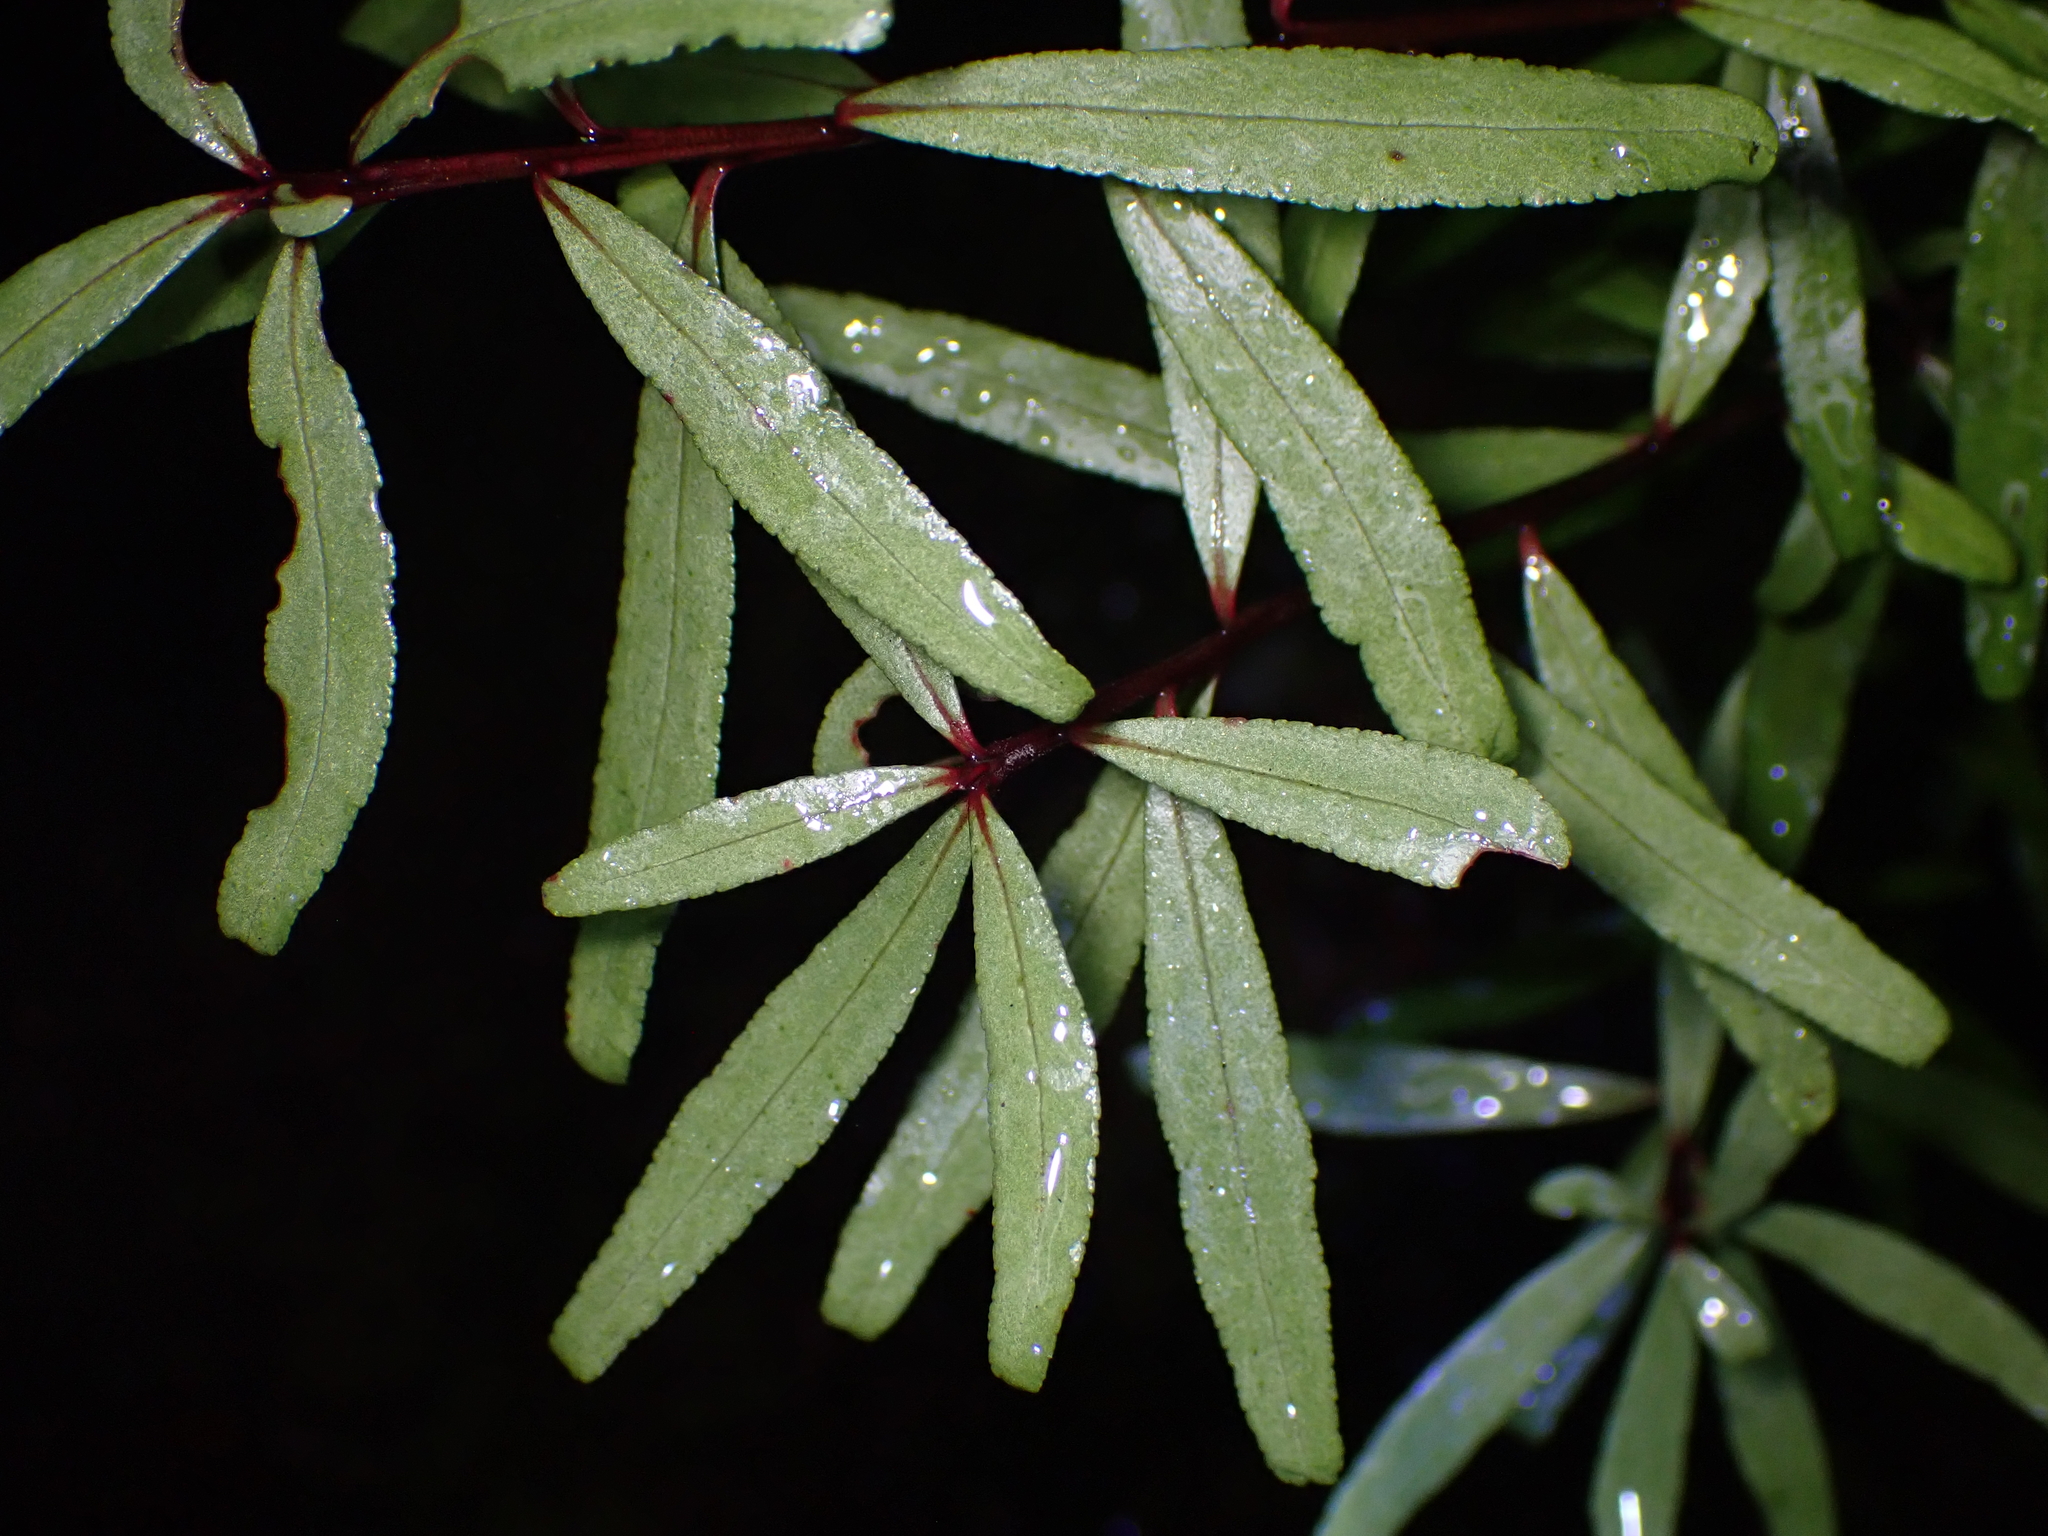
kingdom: Plantae
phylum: Tracheophyta
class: Magnoliopsida
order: Sapindales
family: Rutaceae
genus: Leionema
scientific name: Leionema nudum
